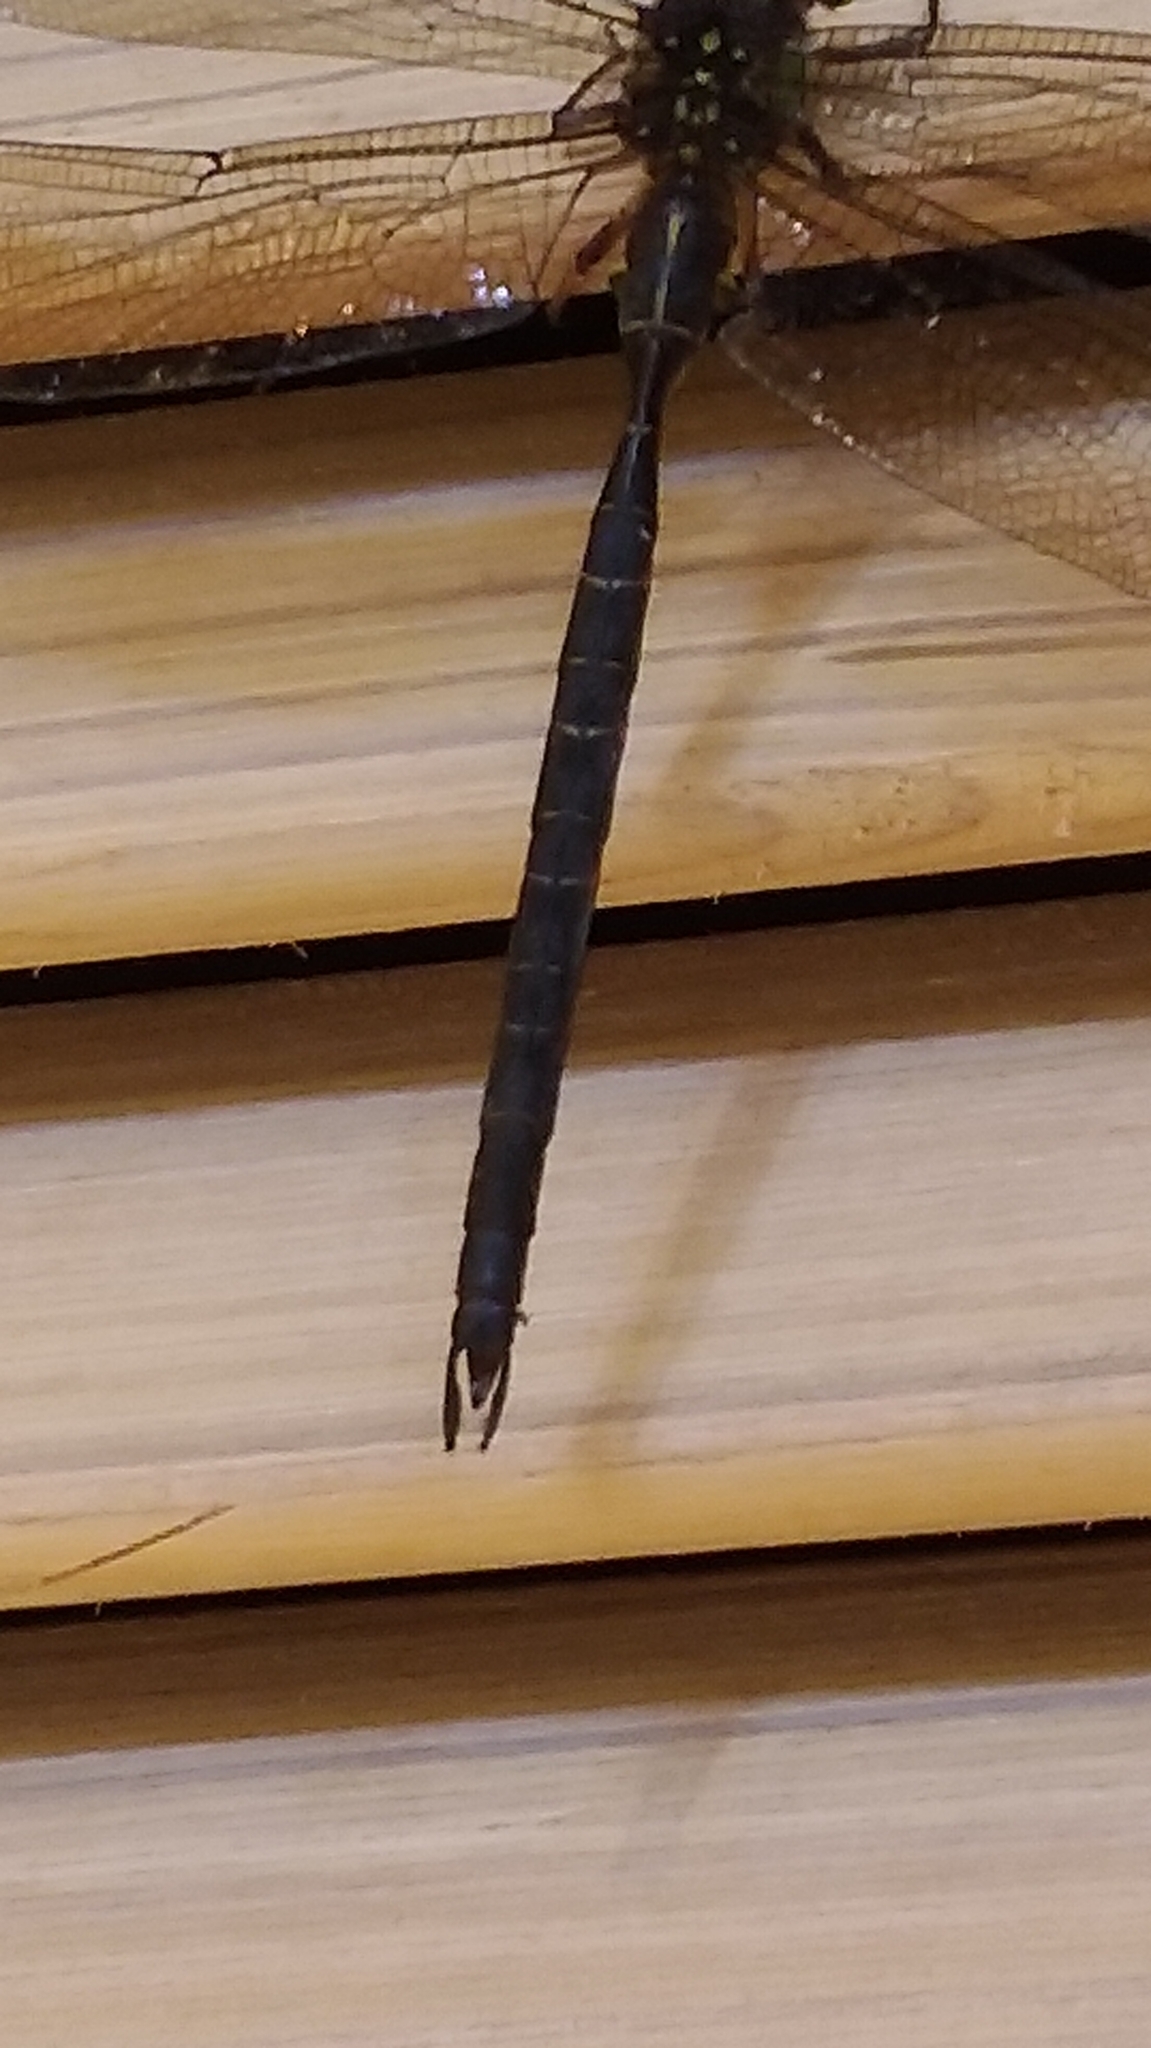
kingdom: Animalia
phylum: Arthropoda
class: Insecta
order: Odonata
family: Aeshnidae
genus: Cephalaeschna
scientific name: Cephalaeschna risi
